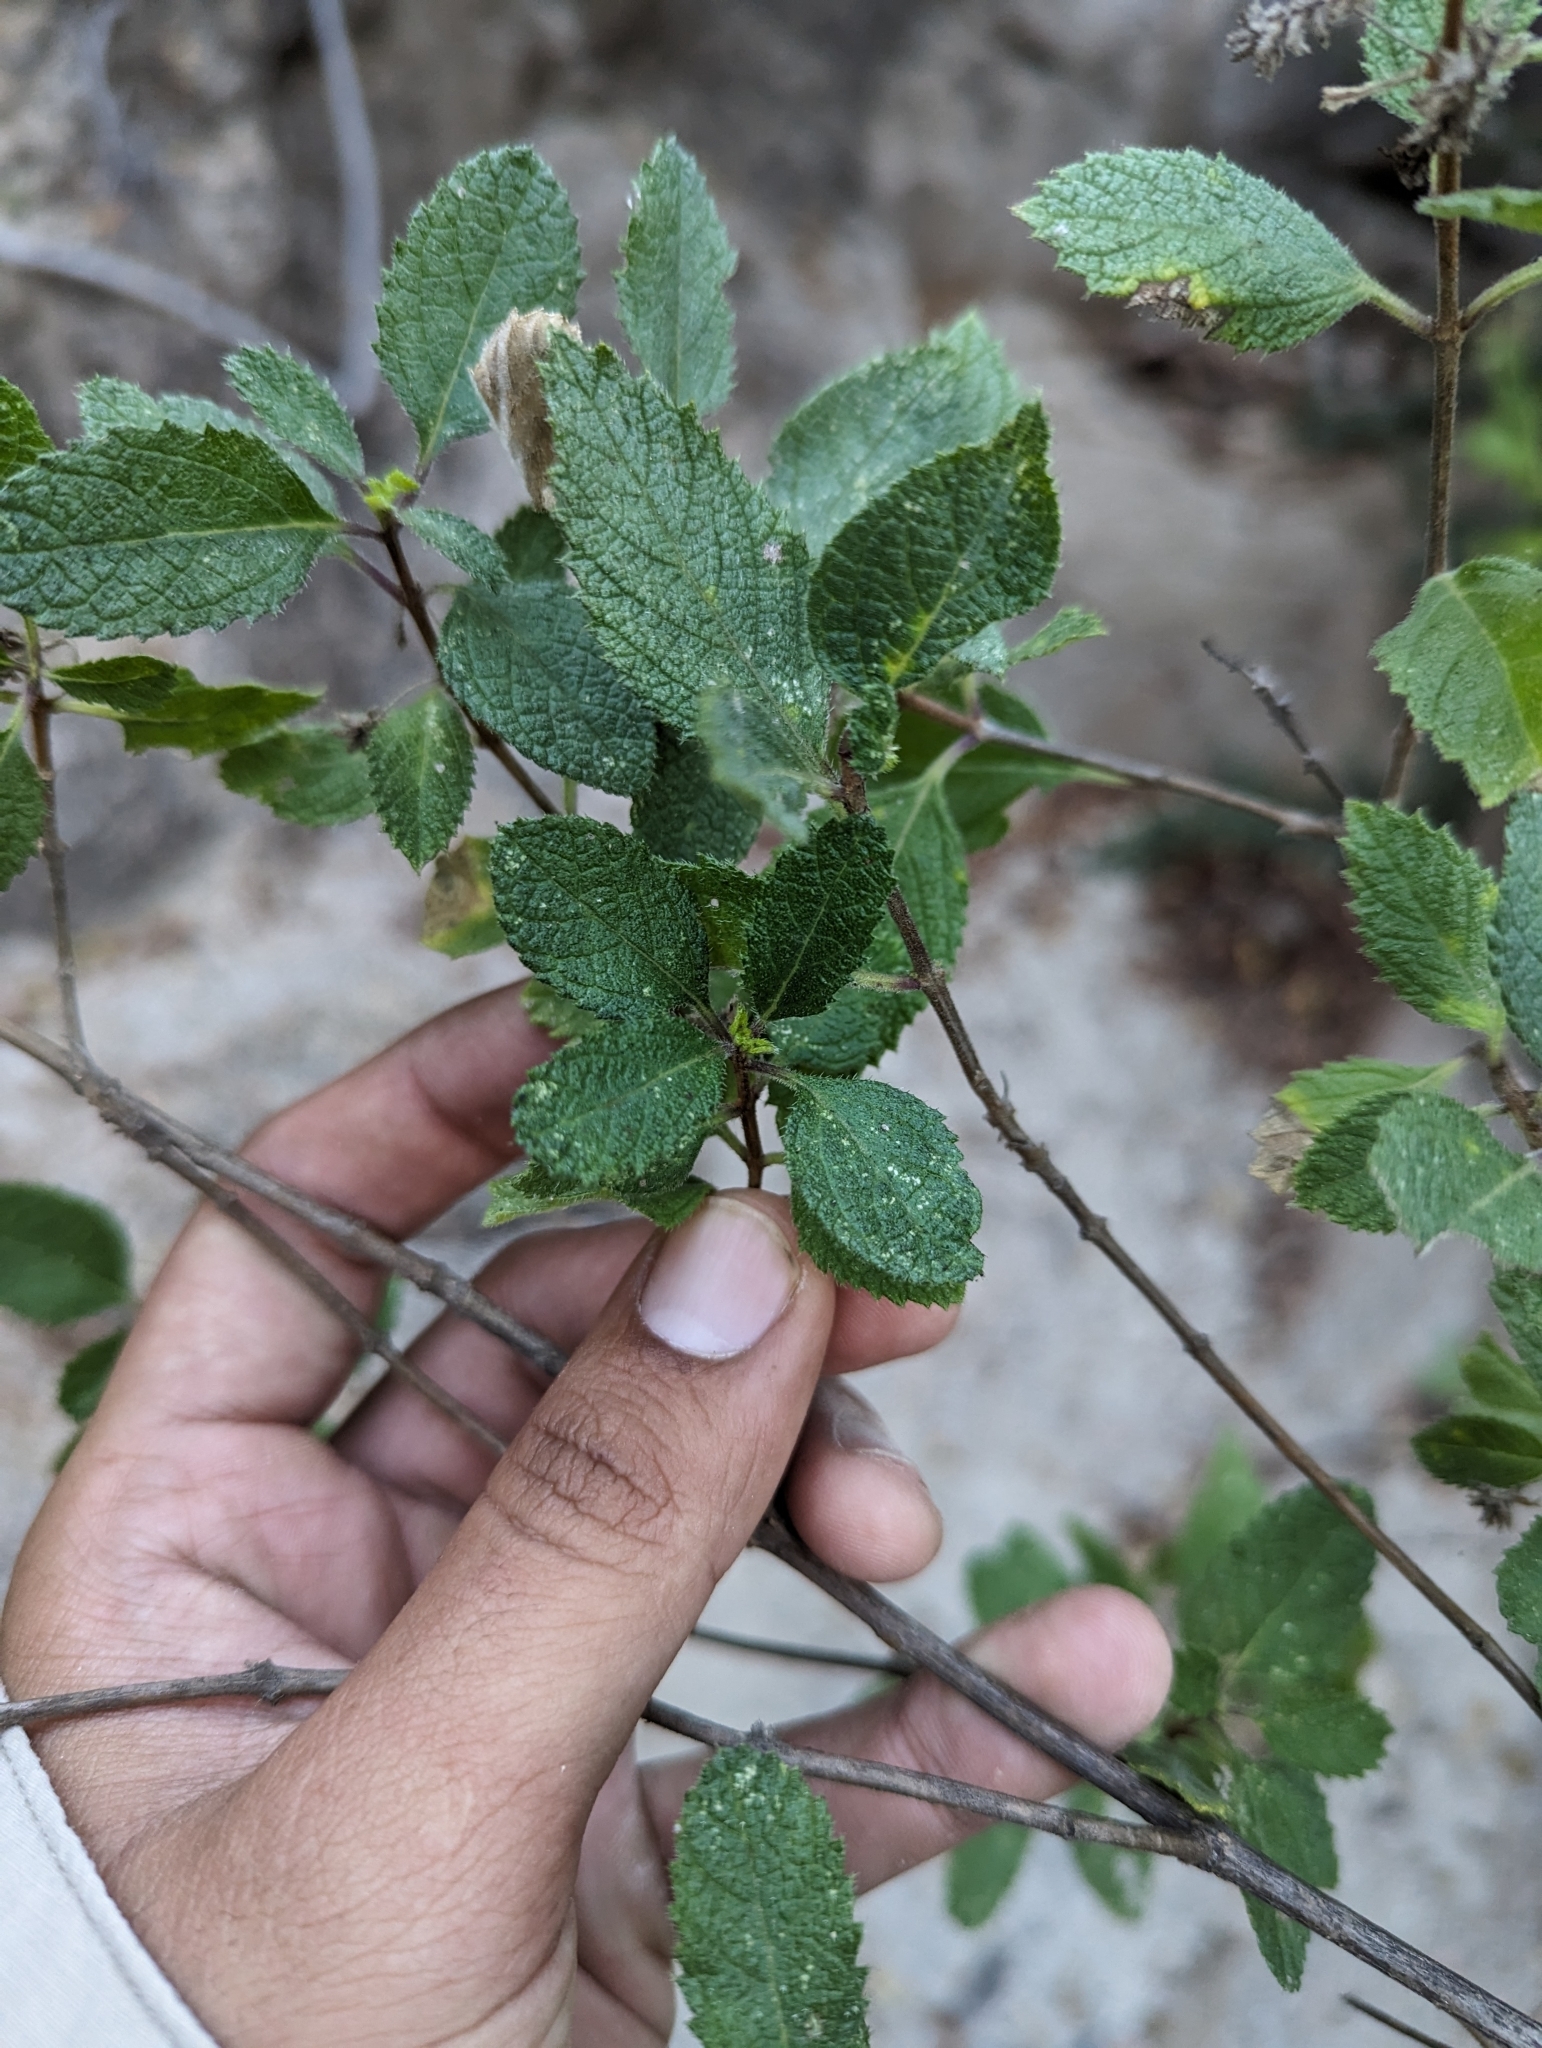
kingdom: Plantae
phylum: Tracheophyta
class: Magnoliopsida
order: Lamiales
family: Verbenaceae
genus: Aloysia
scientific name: Aloysia barbata
